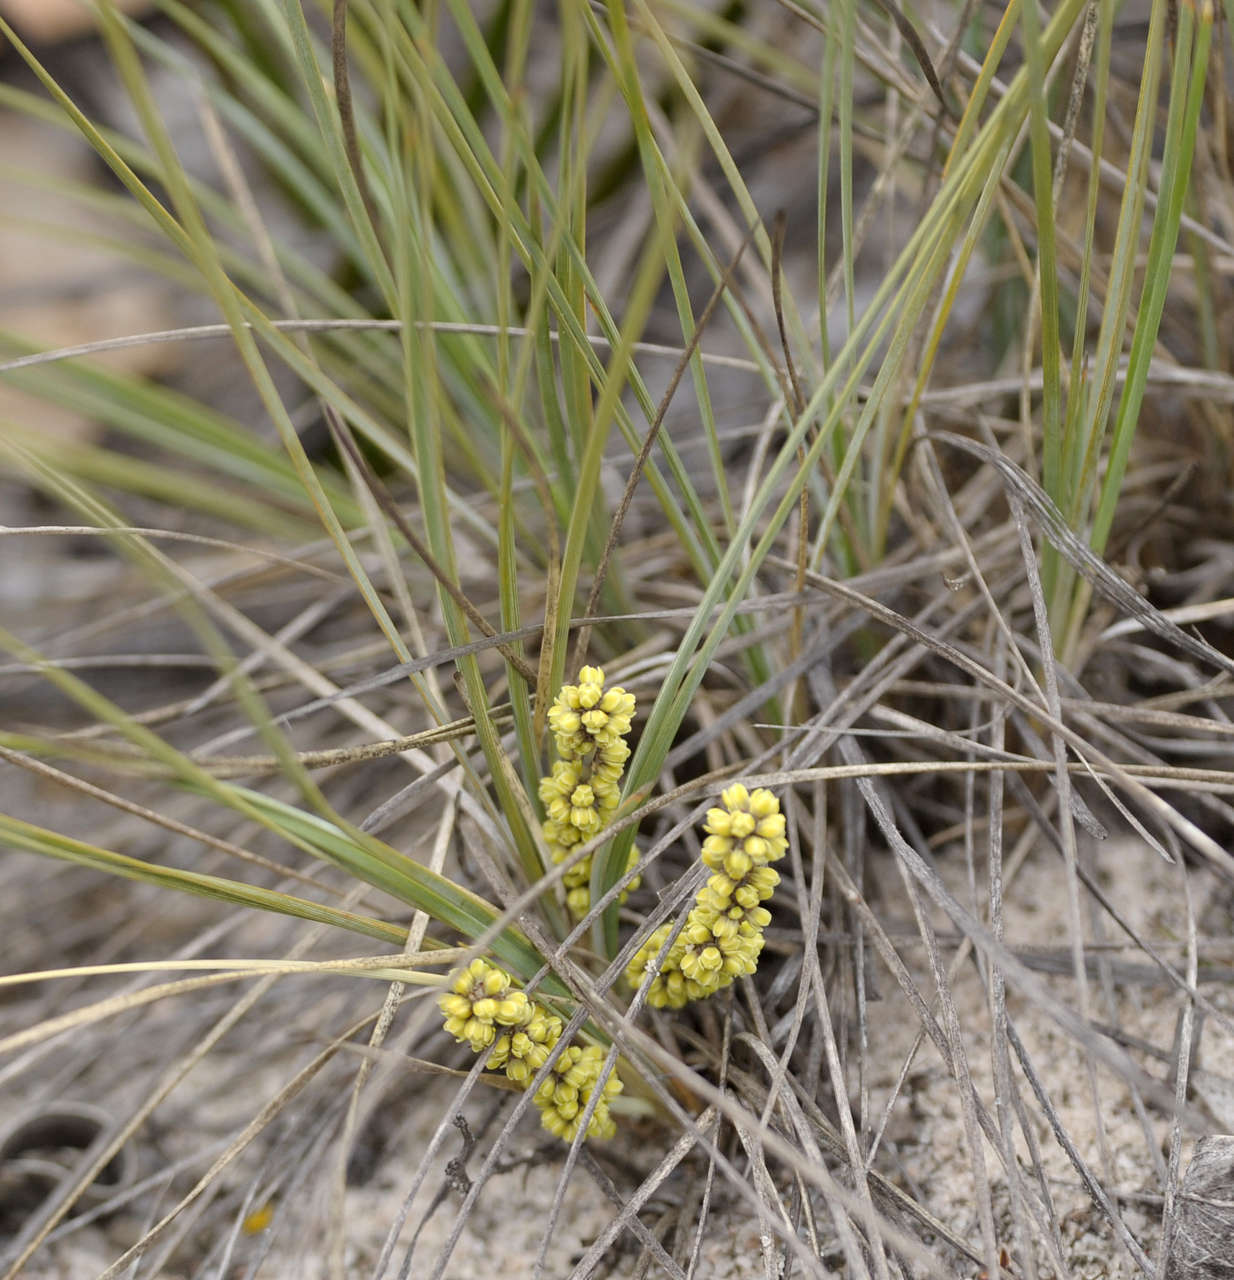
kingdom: Plantae
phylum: Tracheophyta
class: Liliopsida
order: Asparagales
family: Asparagaceae
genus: Lomandra
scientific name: Lomandra collina
